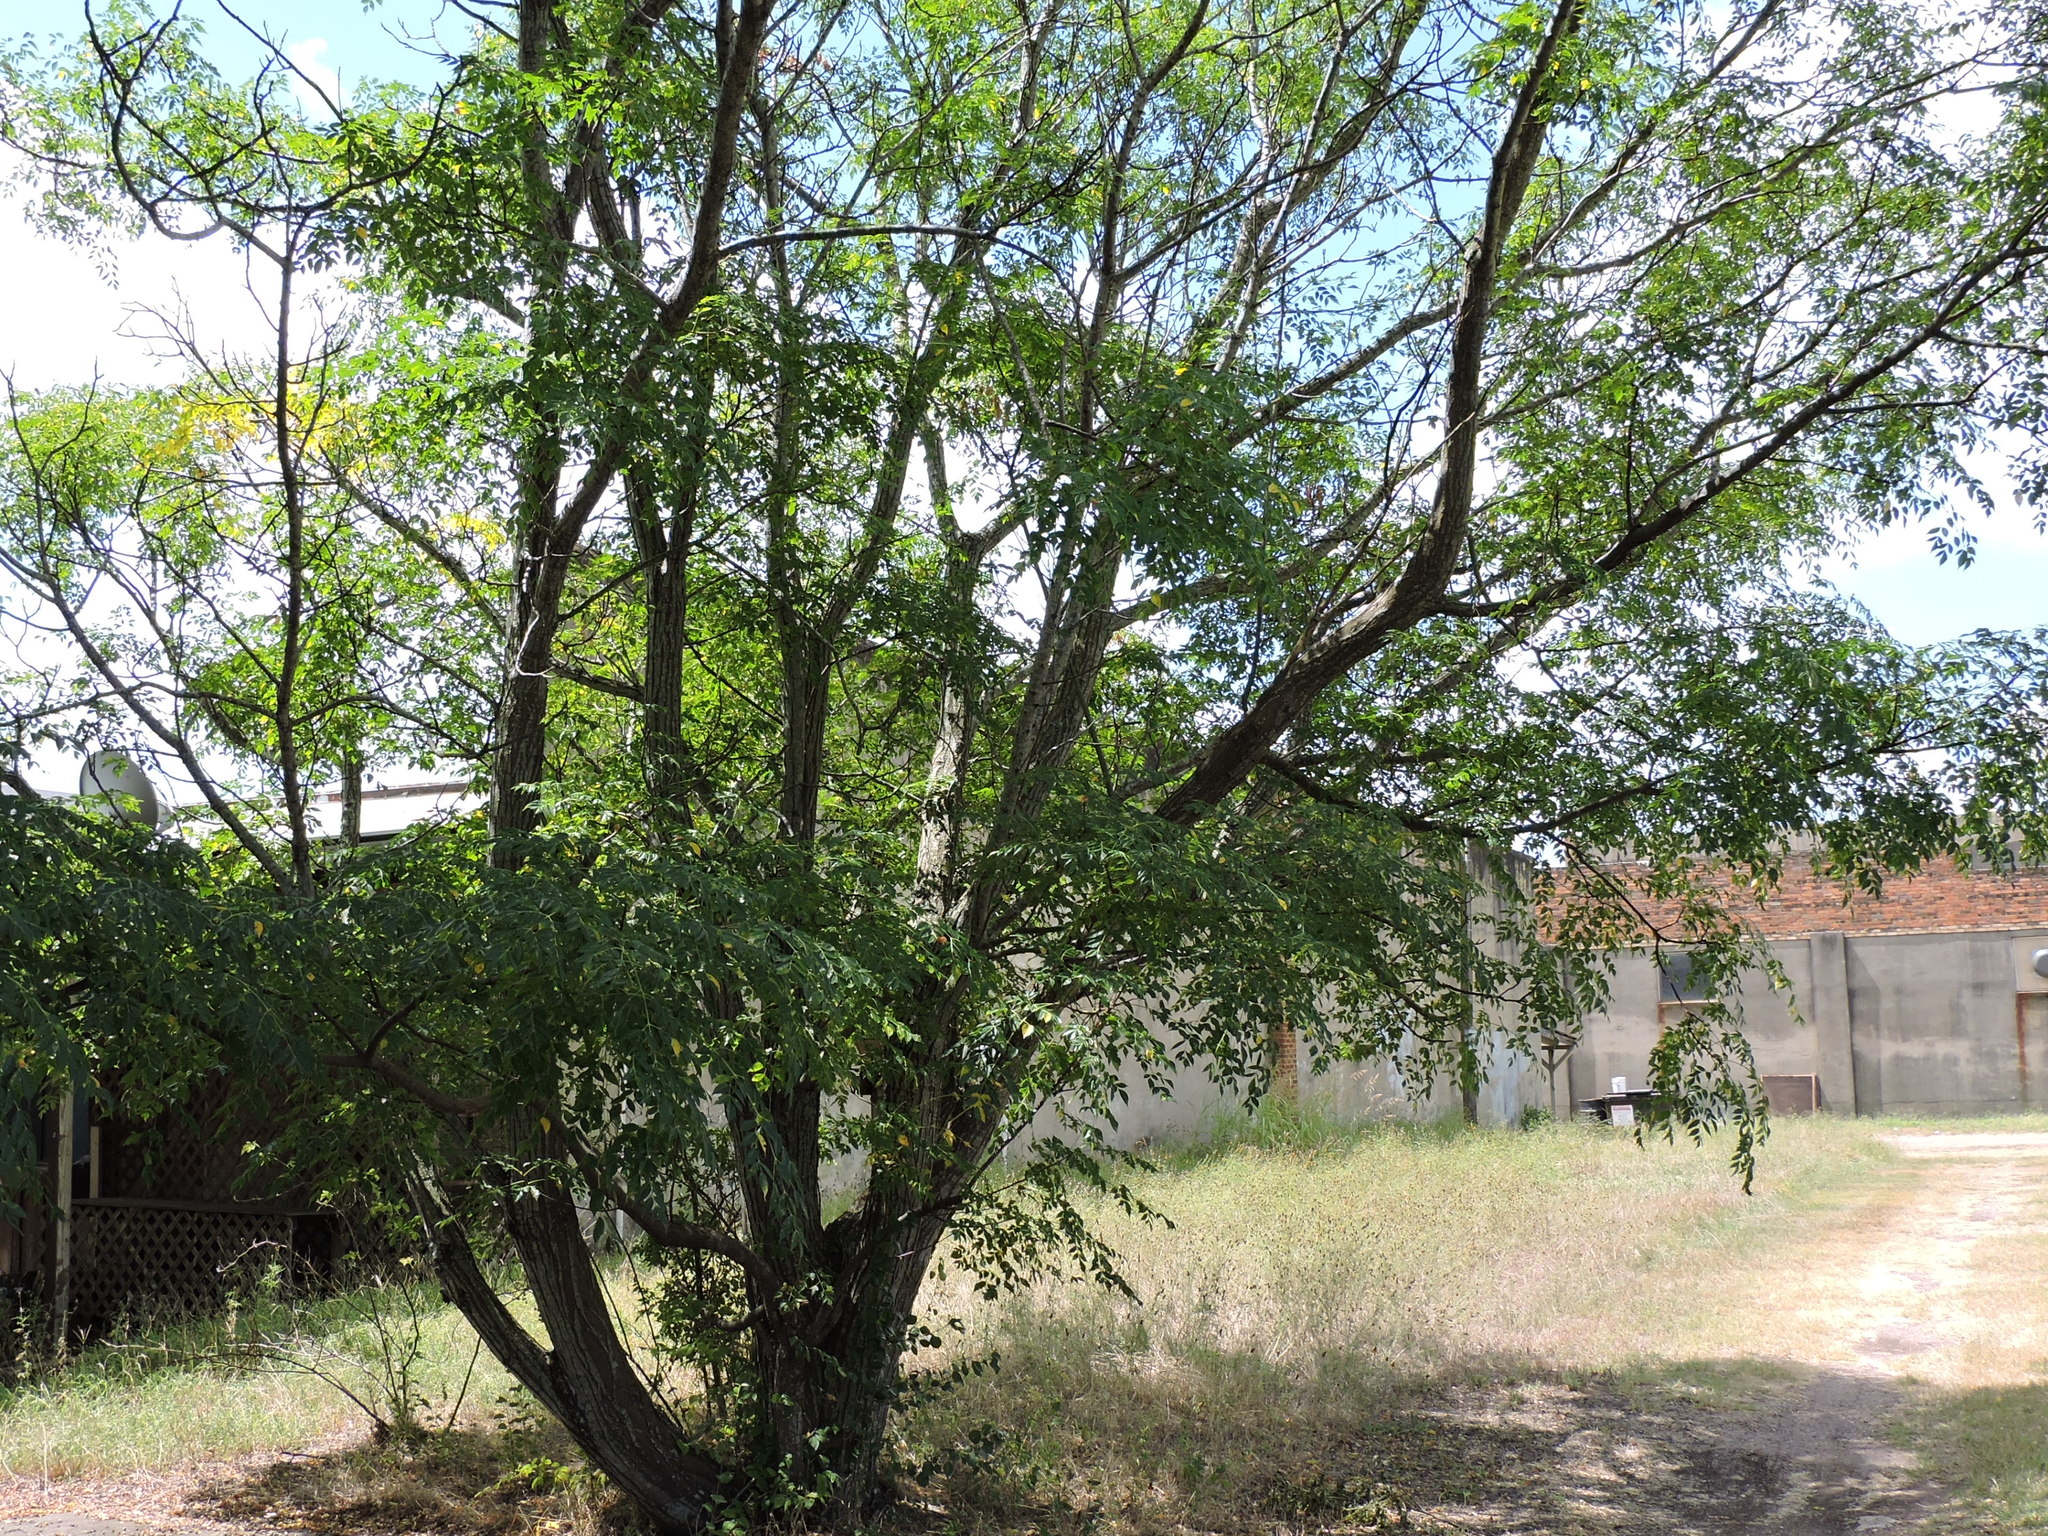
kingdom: Plantae
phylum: Tracheophyta
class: Magnoliopsida
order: Sapindales
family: Meliaceae
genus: Melia
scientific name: Melia azedarach
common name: Chinaberrytree
